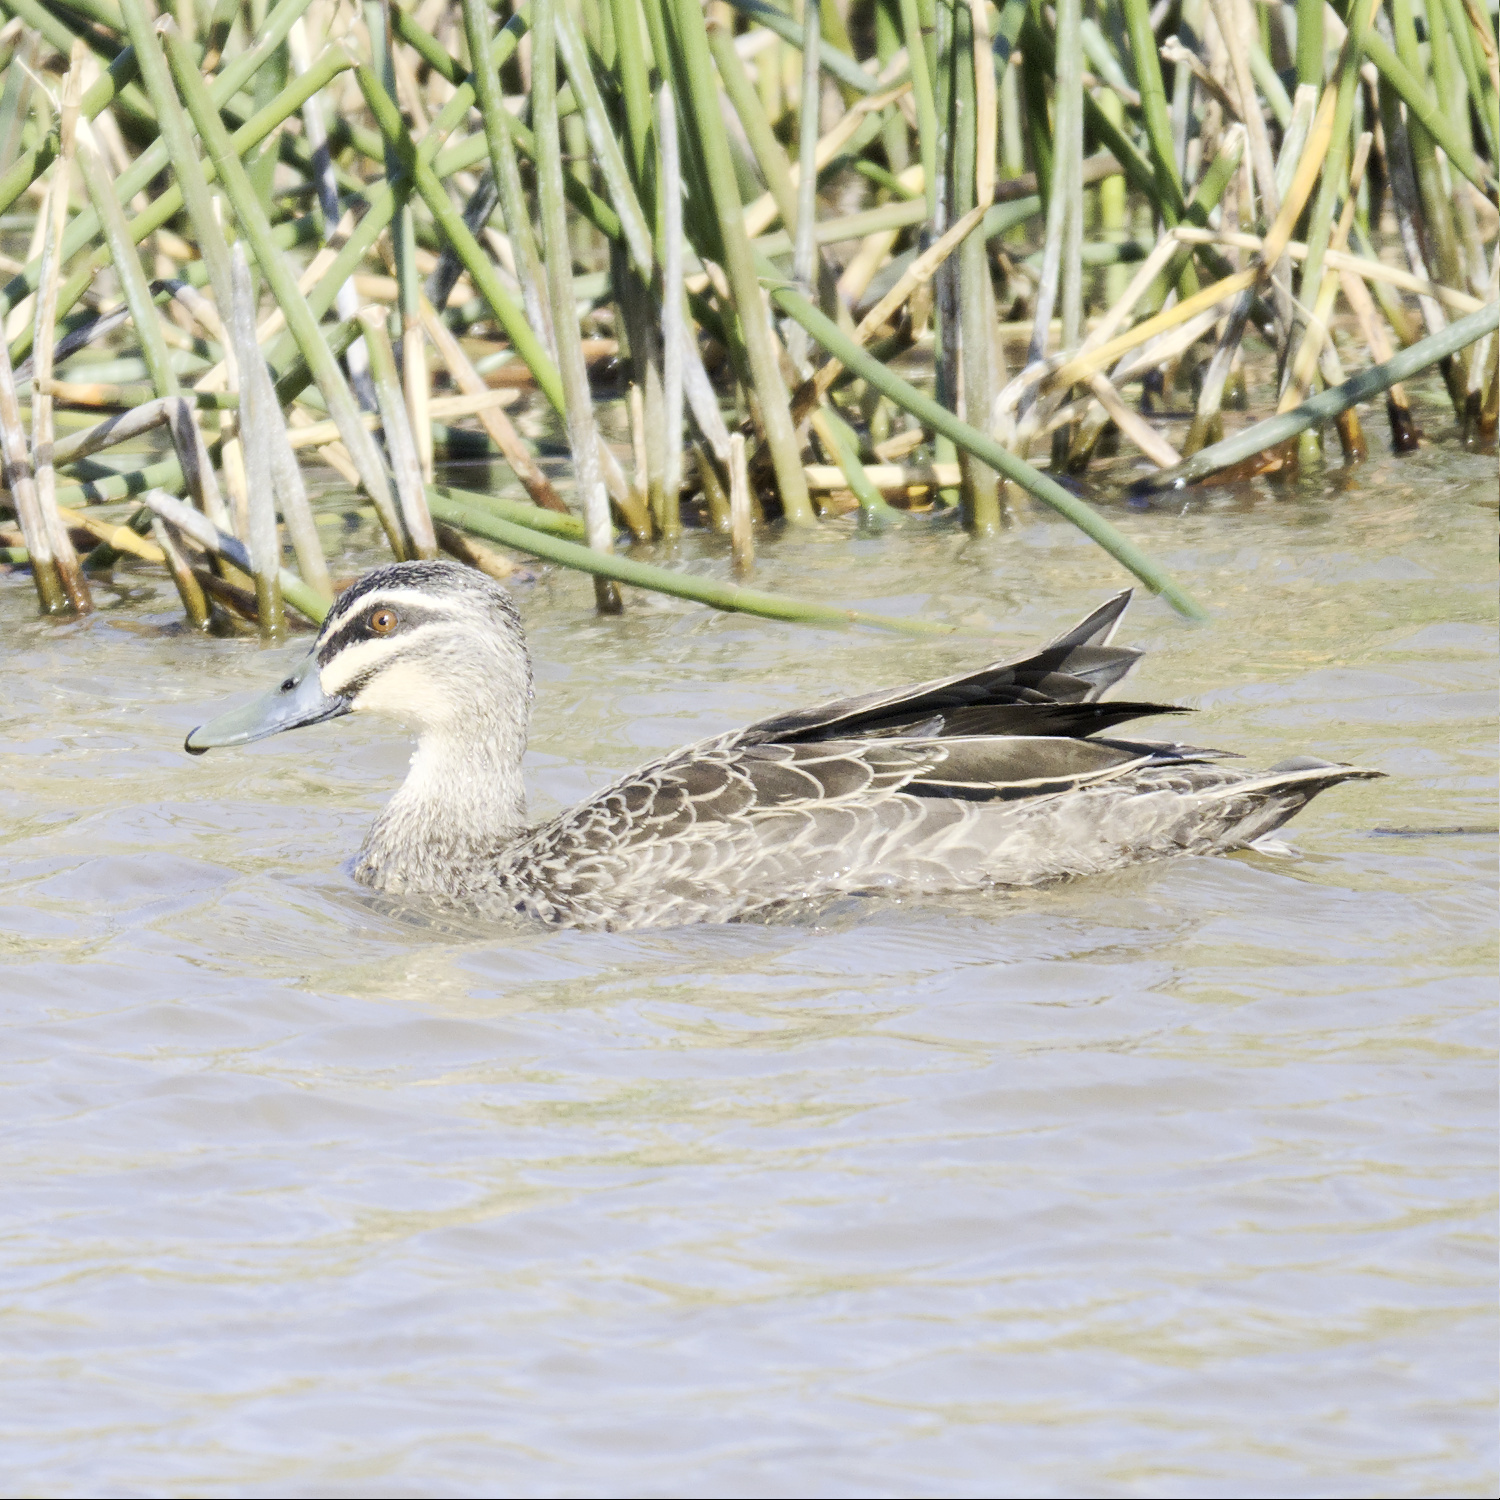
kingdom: Animalia
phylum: Chordata
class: Aves
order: Anseriformes
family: Anatidae
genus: Anas
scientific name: Anas superciliosa
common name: Pacific black duck
